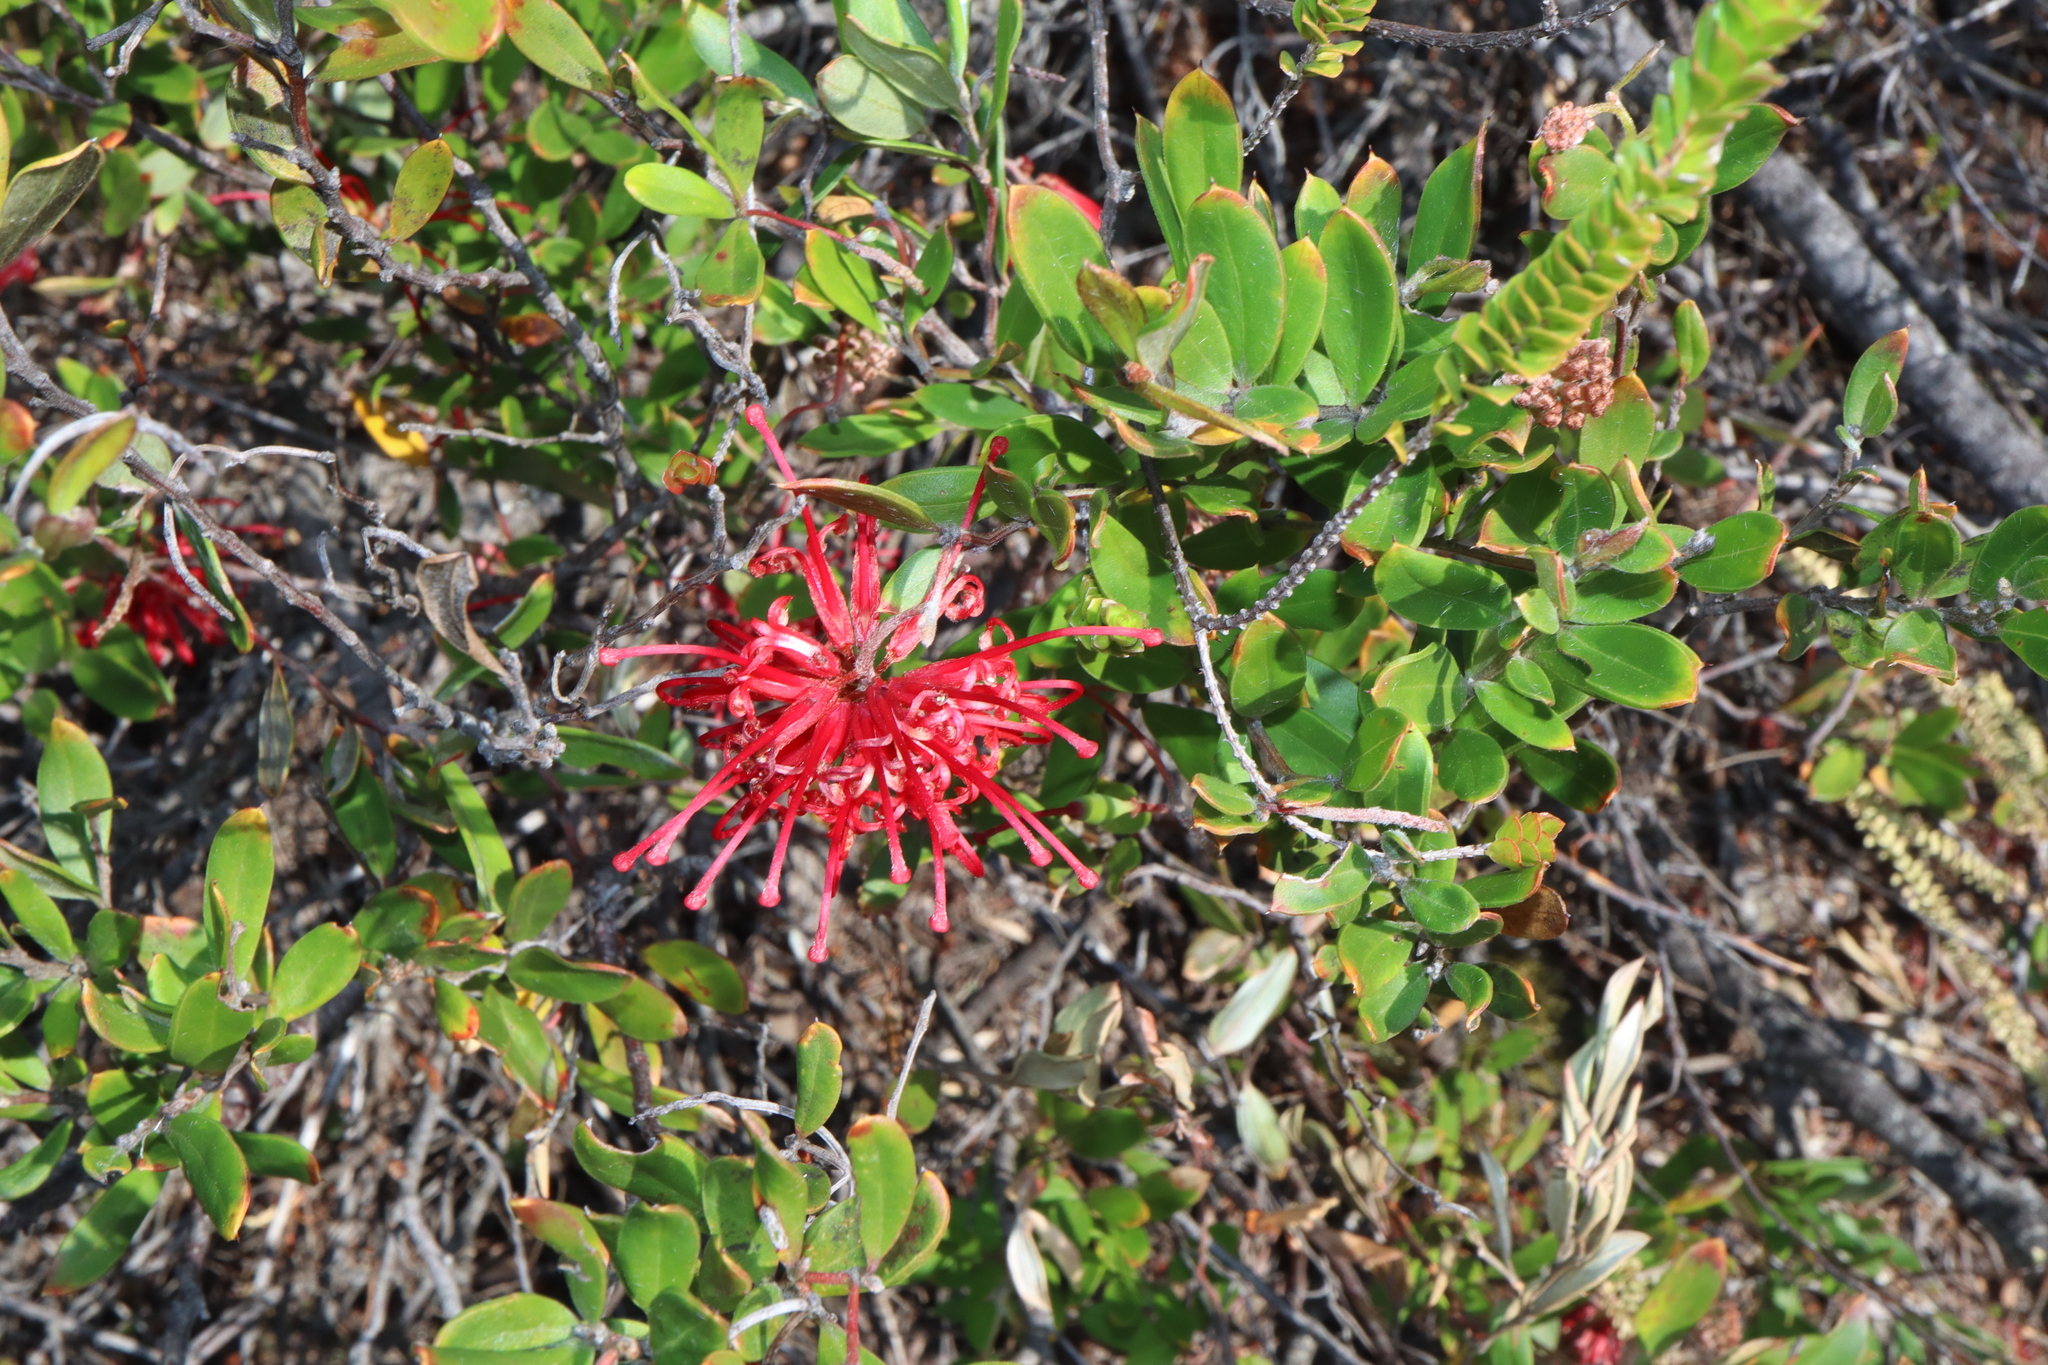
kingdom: Plantae
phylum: Tracheophyta
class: Magnoliopsida
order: Proteales
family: Proteaceae
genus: Grevillea
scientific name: Grevillea speciosa
